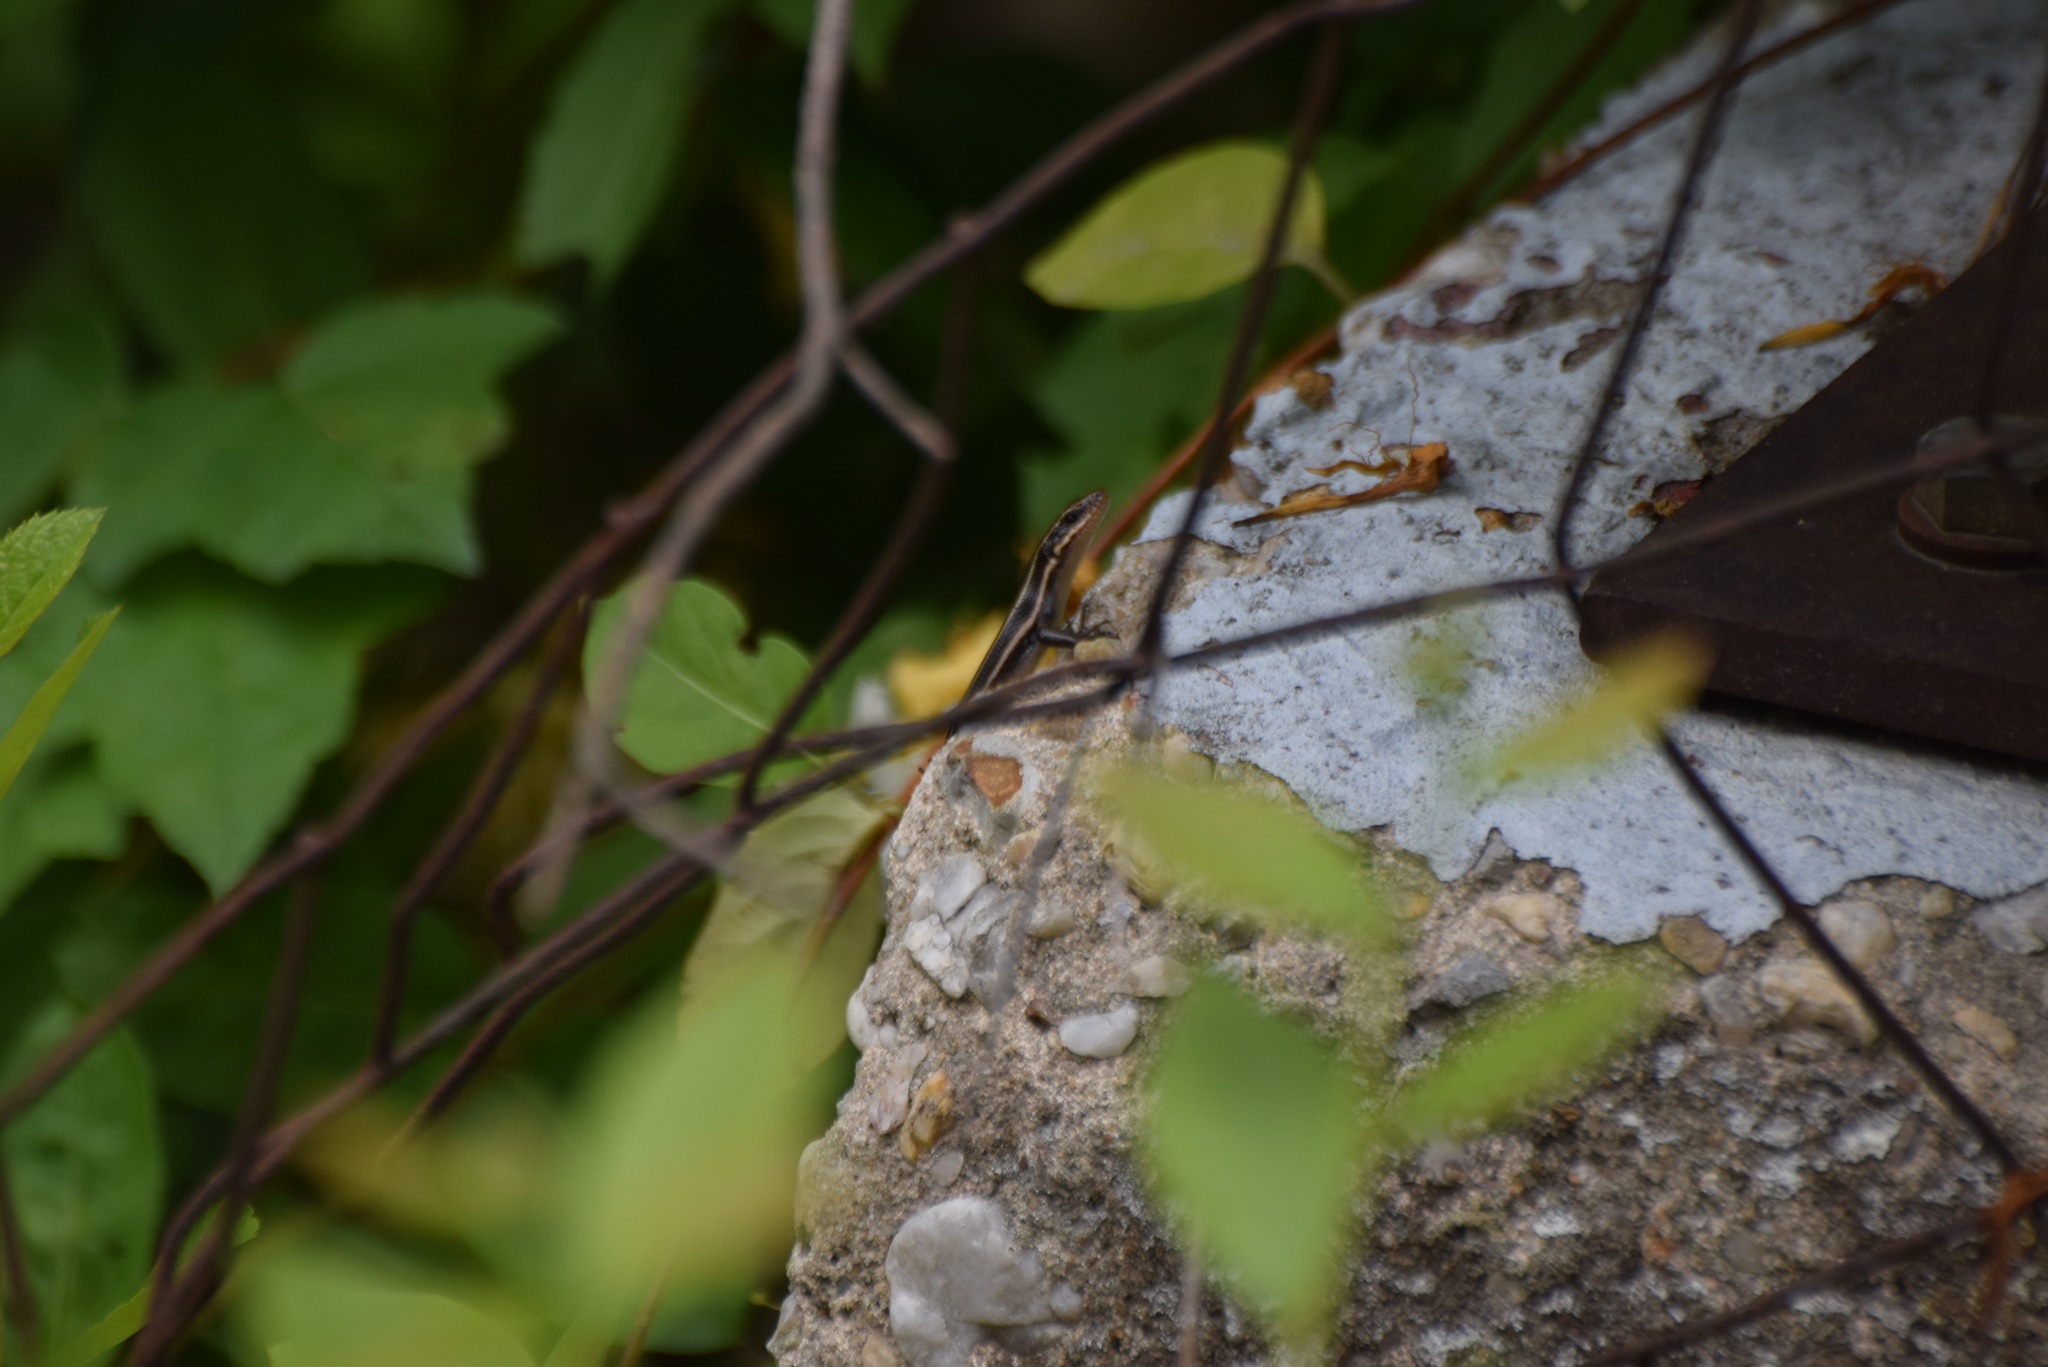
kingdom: Animalia
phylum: Chordata
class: Squamata
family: Scincidae
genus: Plestiodon
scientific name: Plestiodon fasciatus
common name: Five-lined skink
